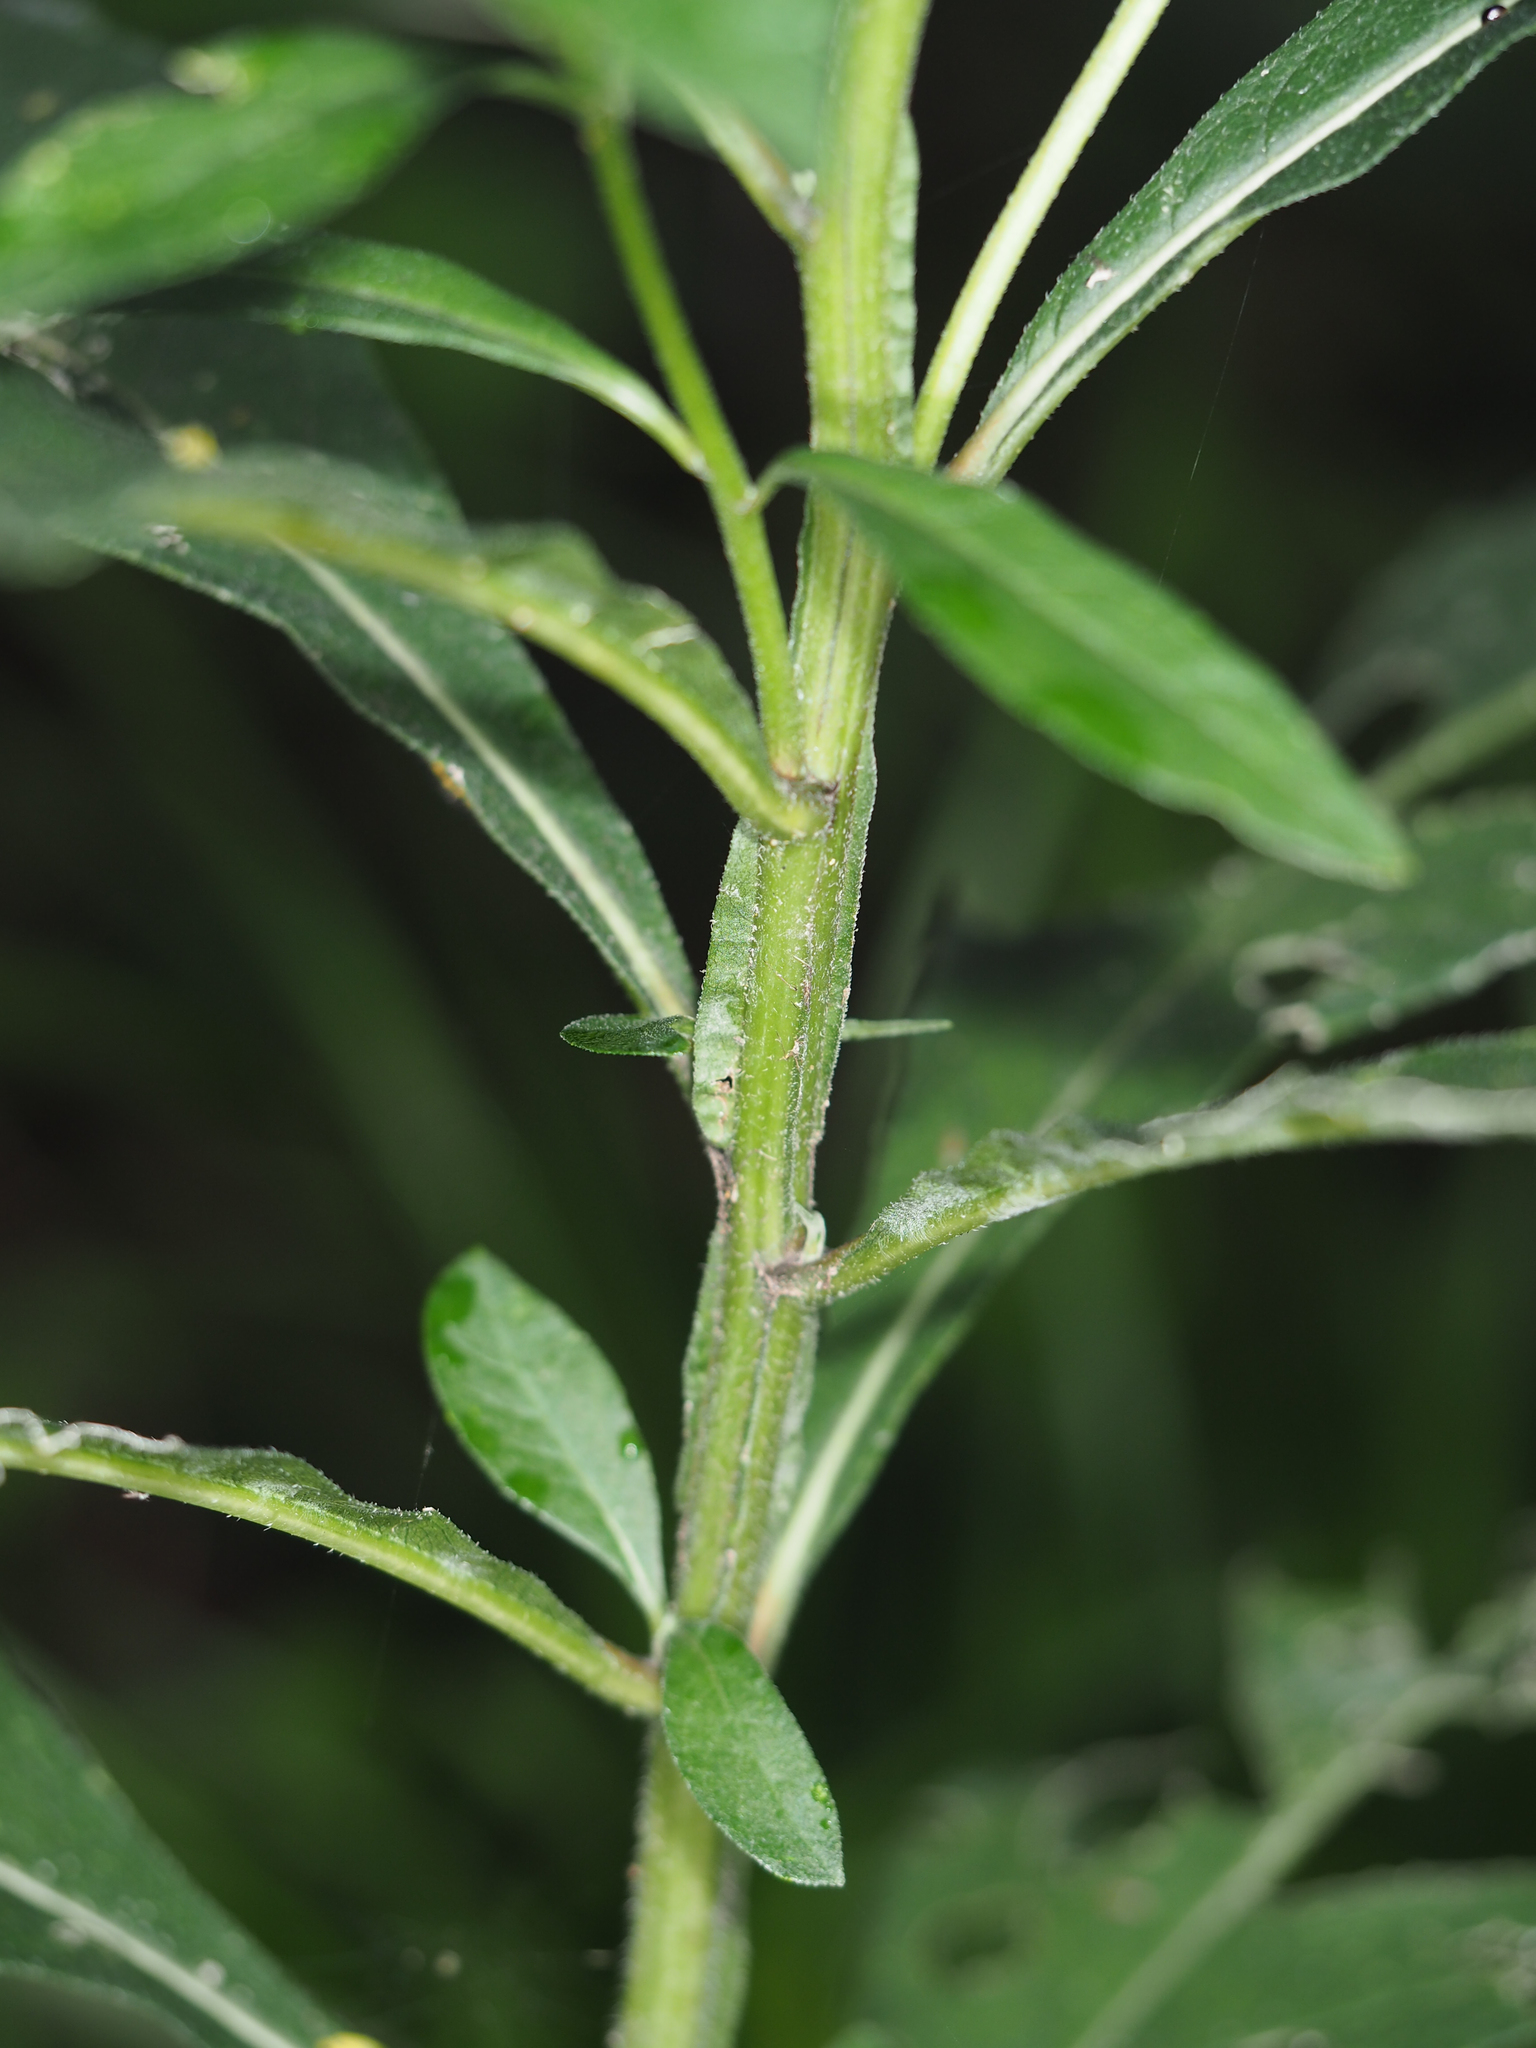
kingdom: Plantae
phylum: Tracheophyta
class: Magnoliopsida
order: Asterales
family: Asteraceae
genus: Verbesina
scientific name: Verbesina alternifolia
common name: Wingstem
